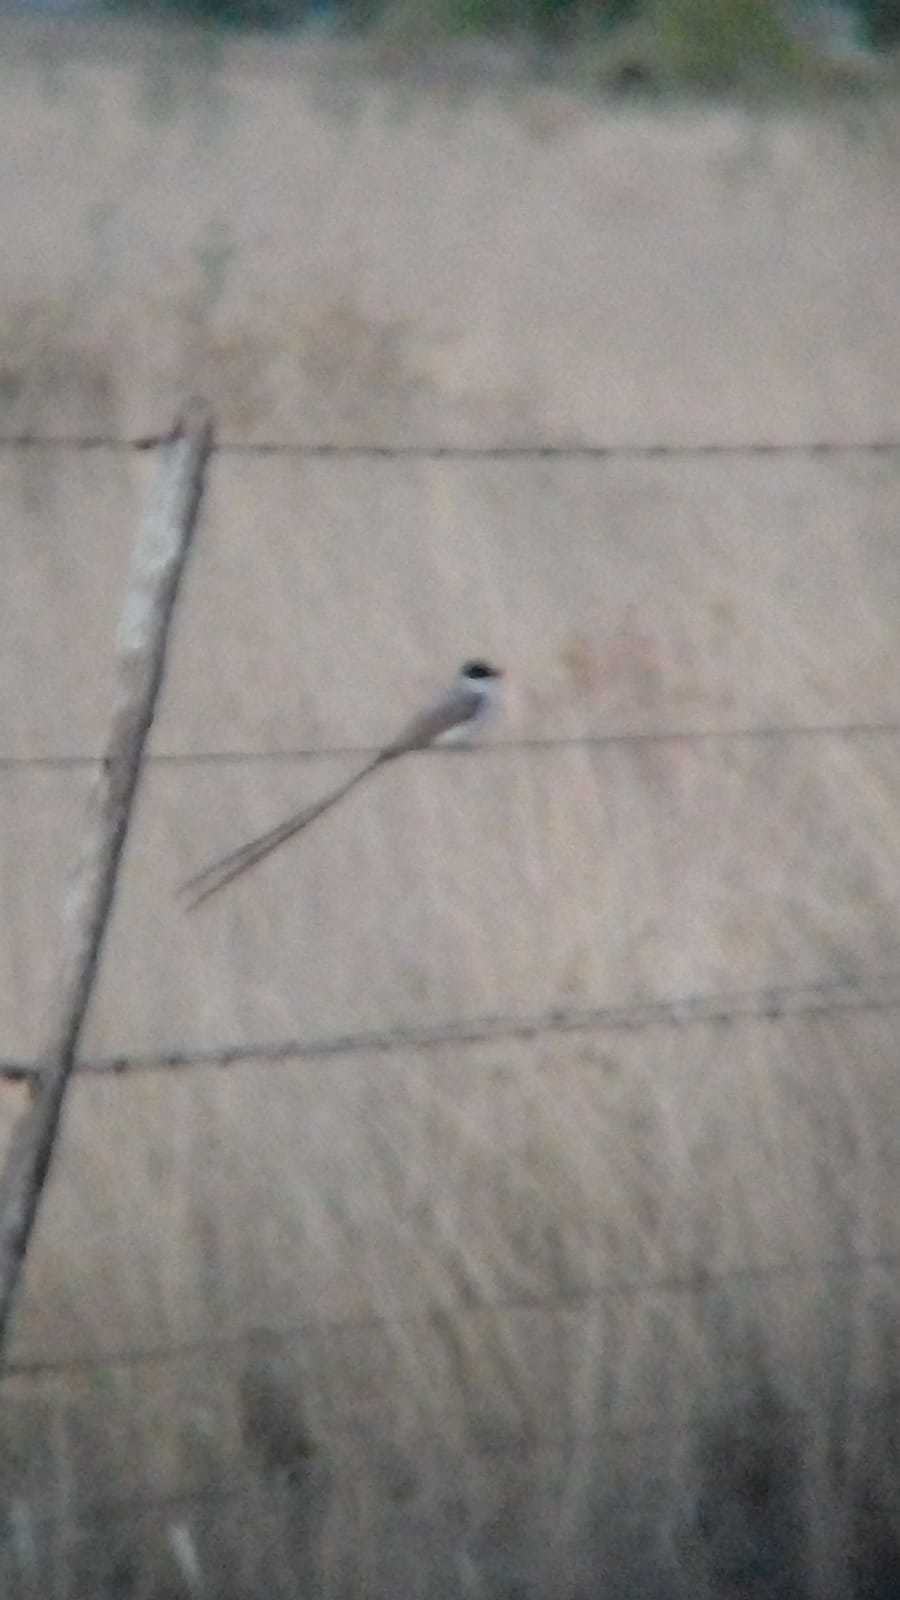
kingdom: Animalia
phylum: Chordata
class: Aves
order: Passeriformes
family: Tyrannidae
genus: Tyrannus
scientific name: Tyrannus savana
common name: Fork-tailed flycatcher
